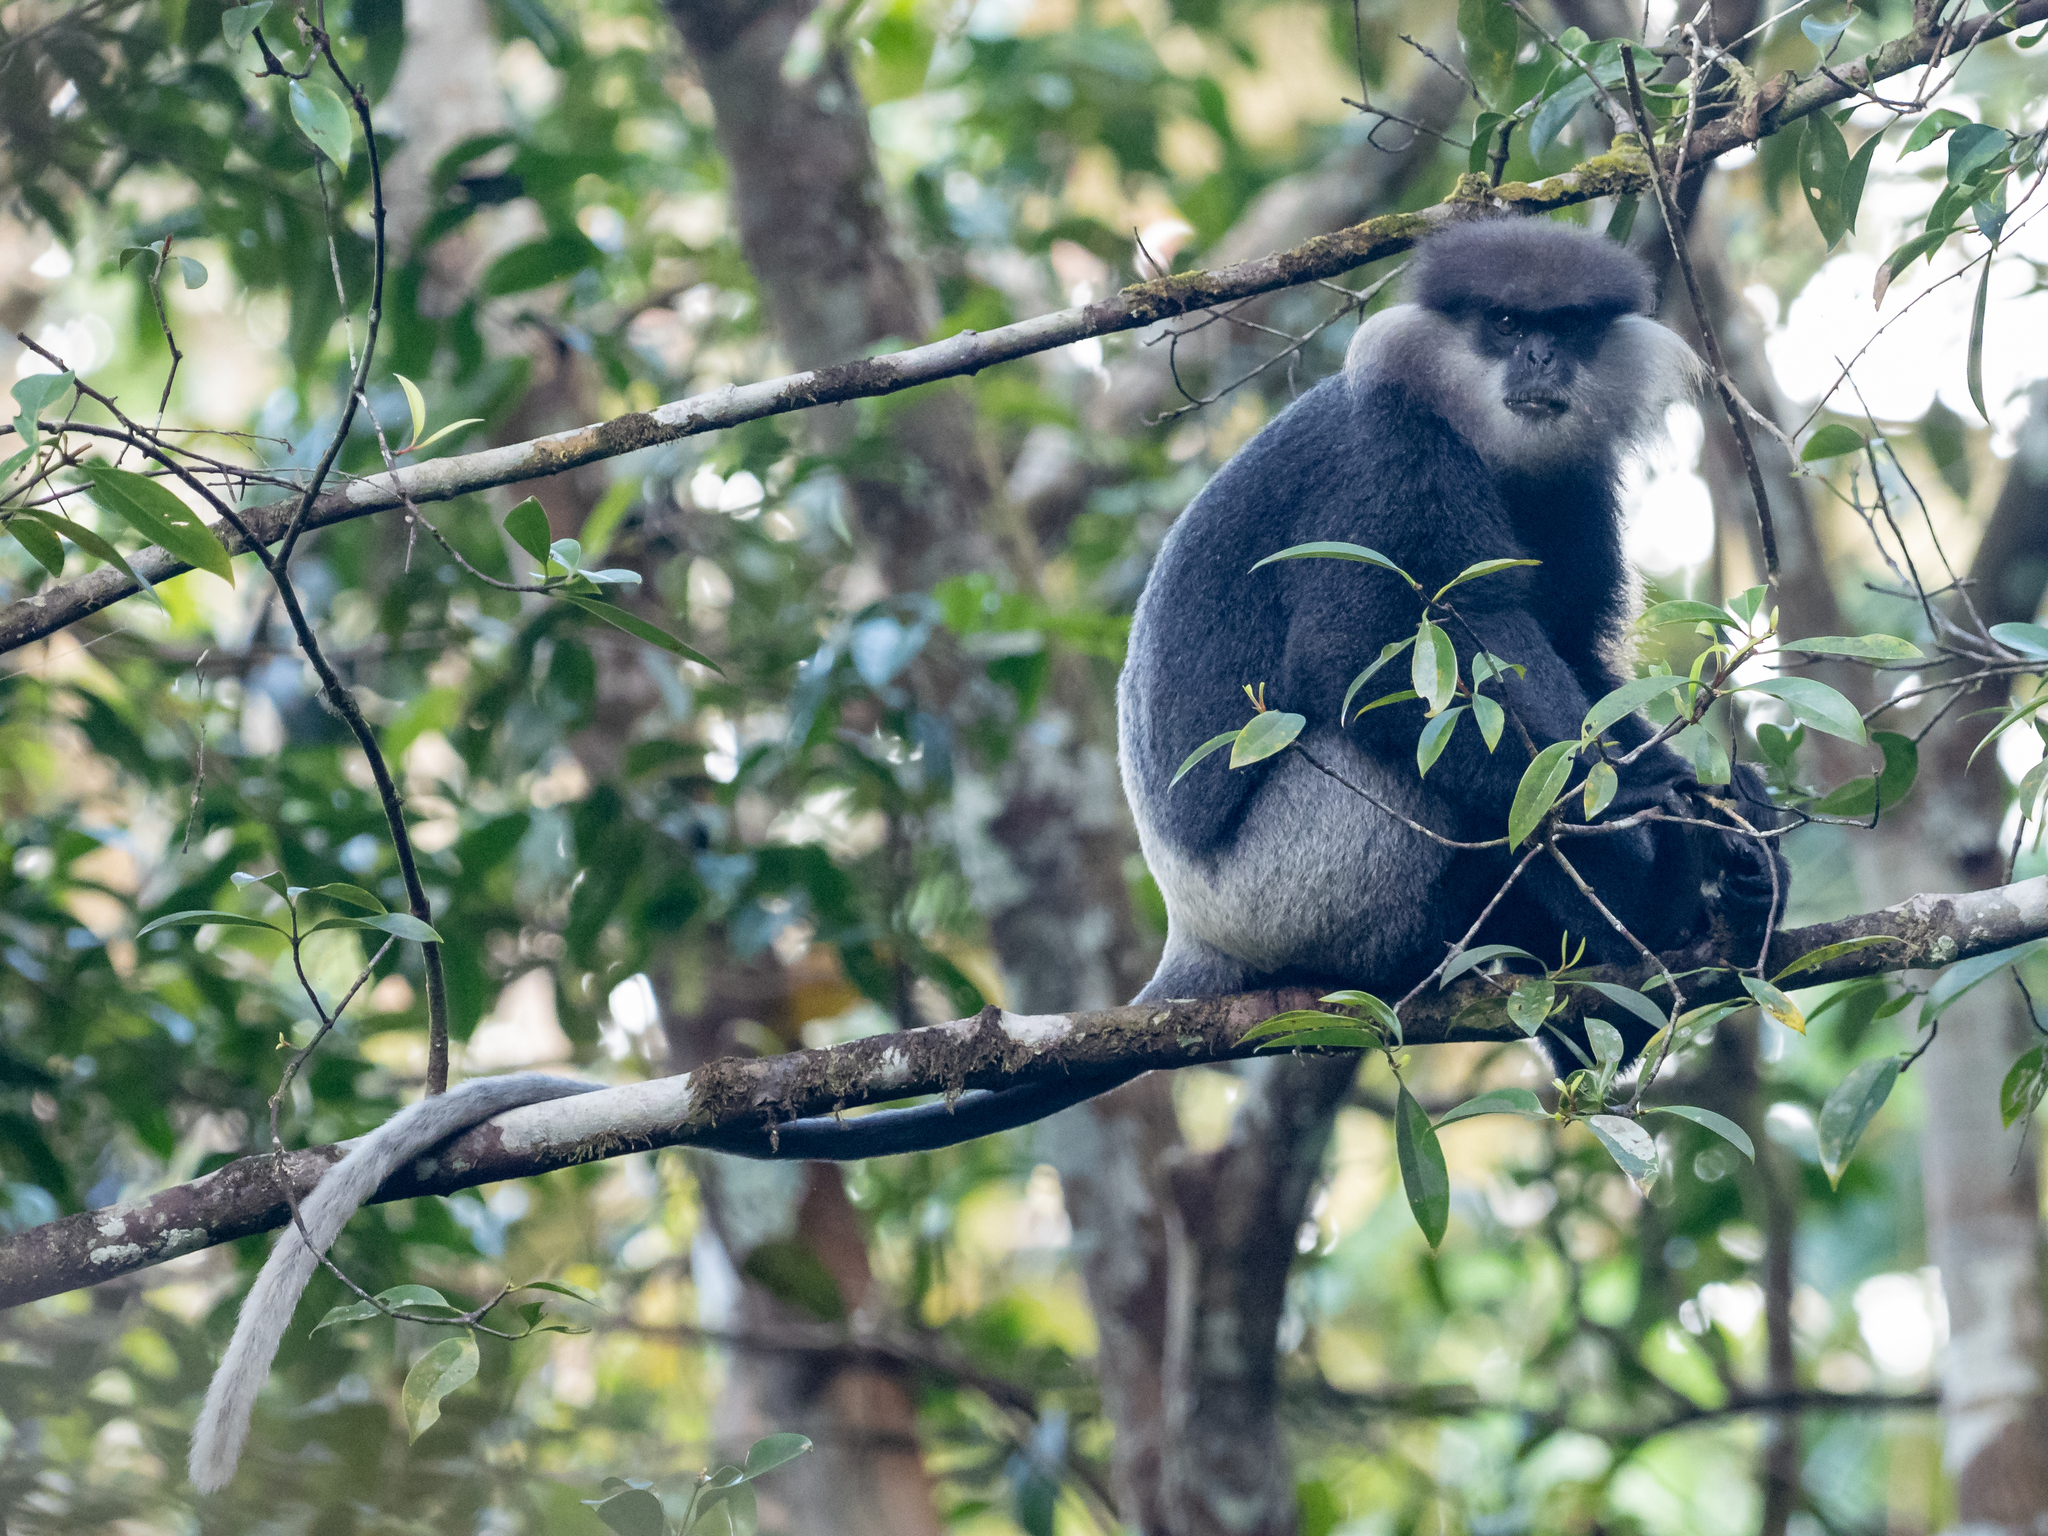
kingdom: Animalia
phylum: Chordata
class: Mammalia
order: Primates
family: Cercopithecidae
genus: Semnopithecus
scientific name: Semnopithecus vetulus
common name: Purple-faced langur
